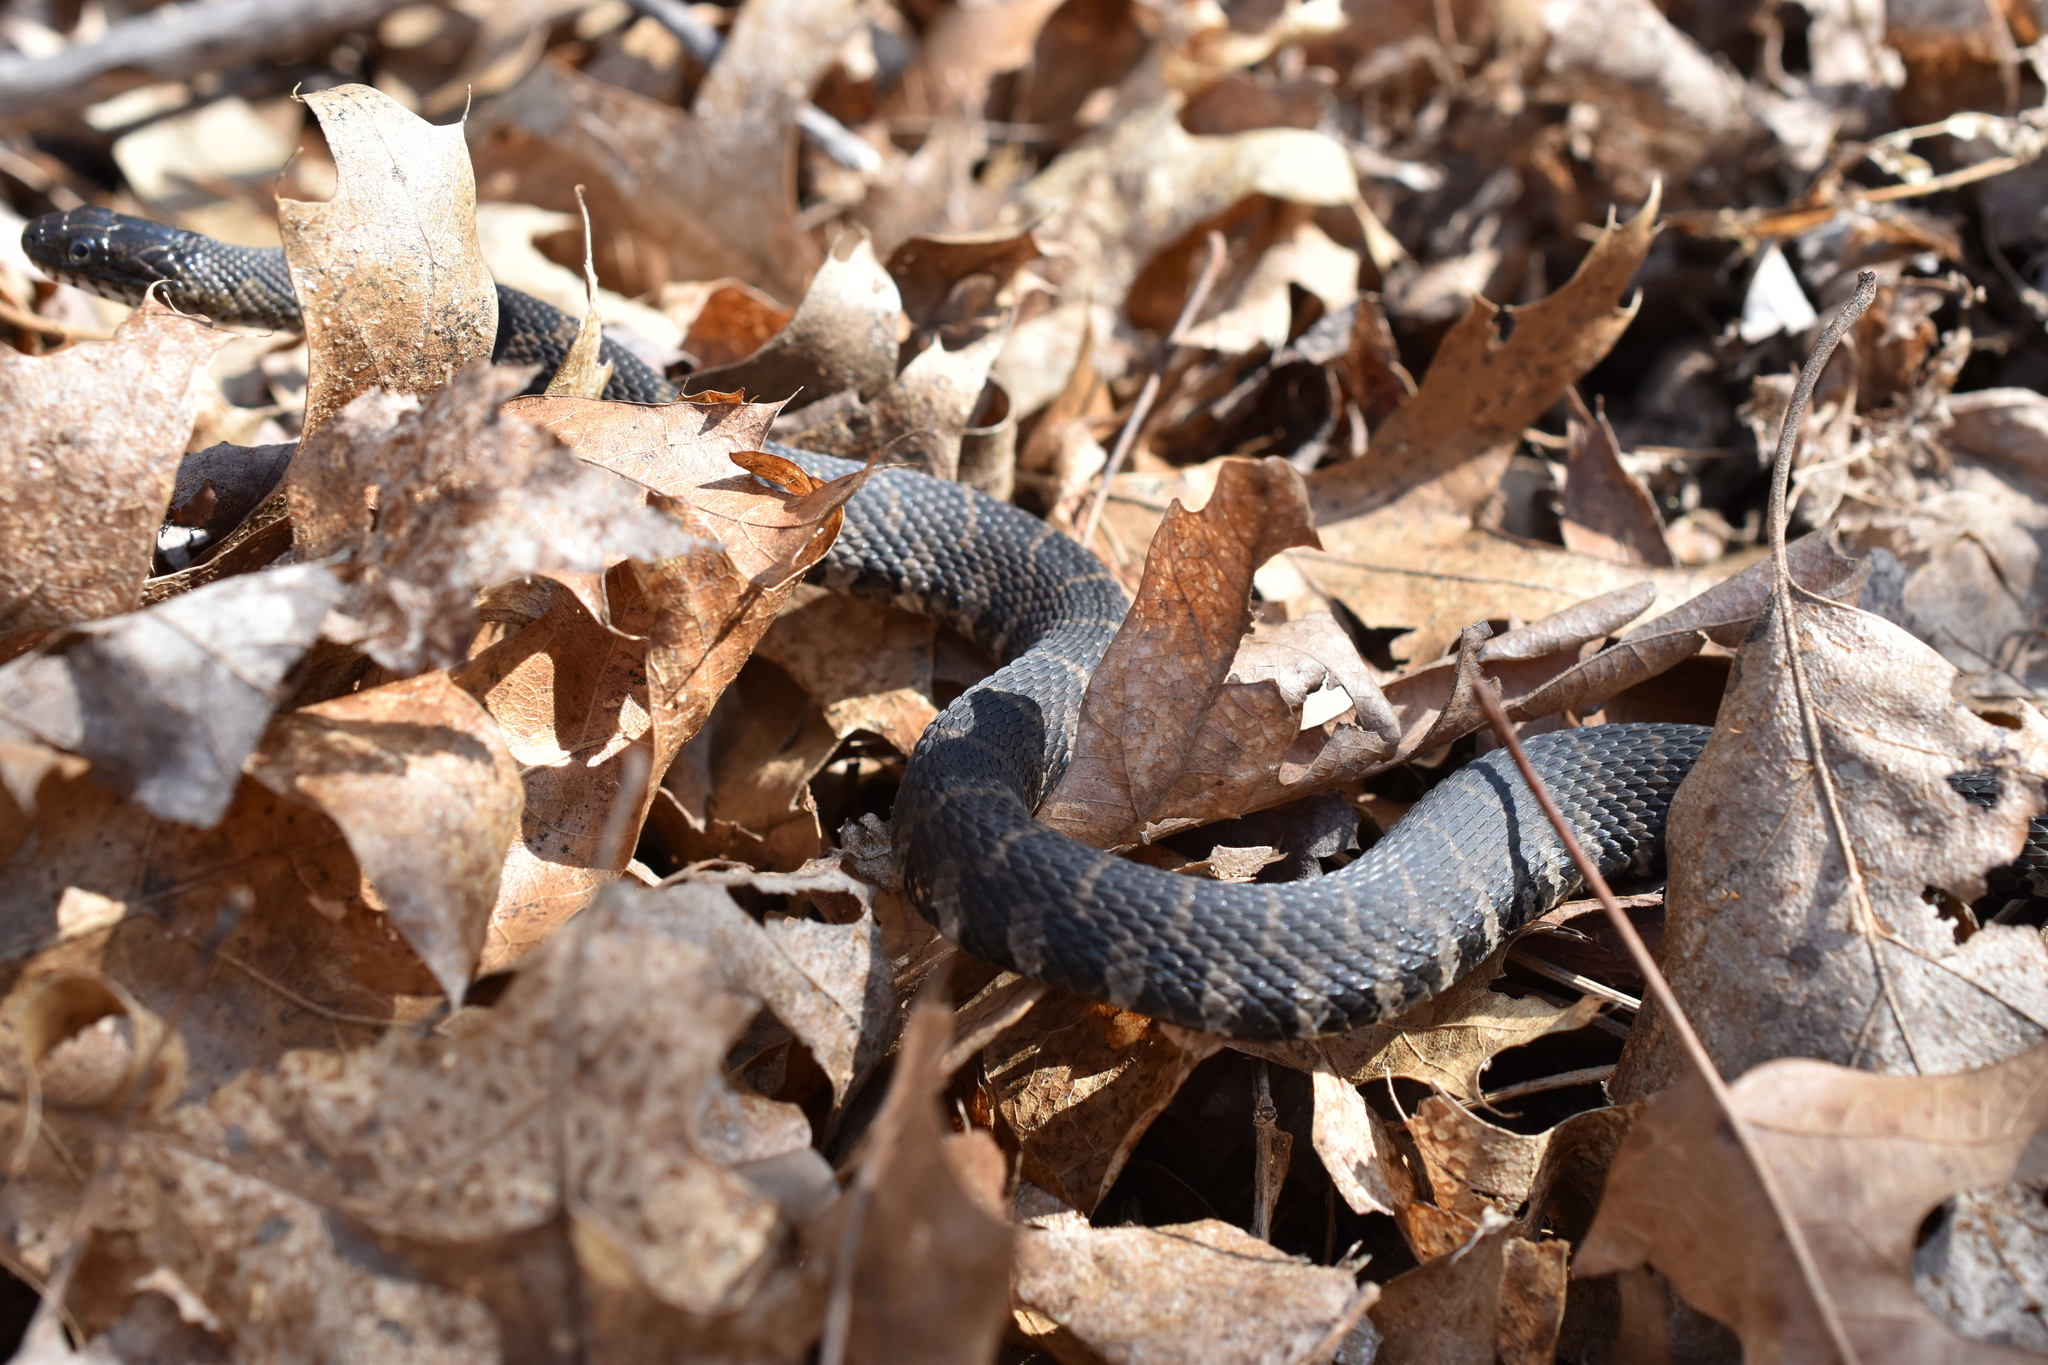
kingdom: Animalia
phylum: Chordata
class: Squamata
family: Colubridae
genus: Nerodia
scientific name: Nerodia sipedon
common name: Northern water snake
